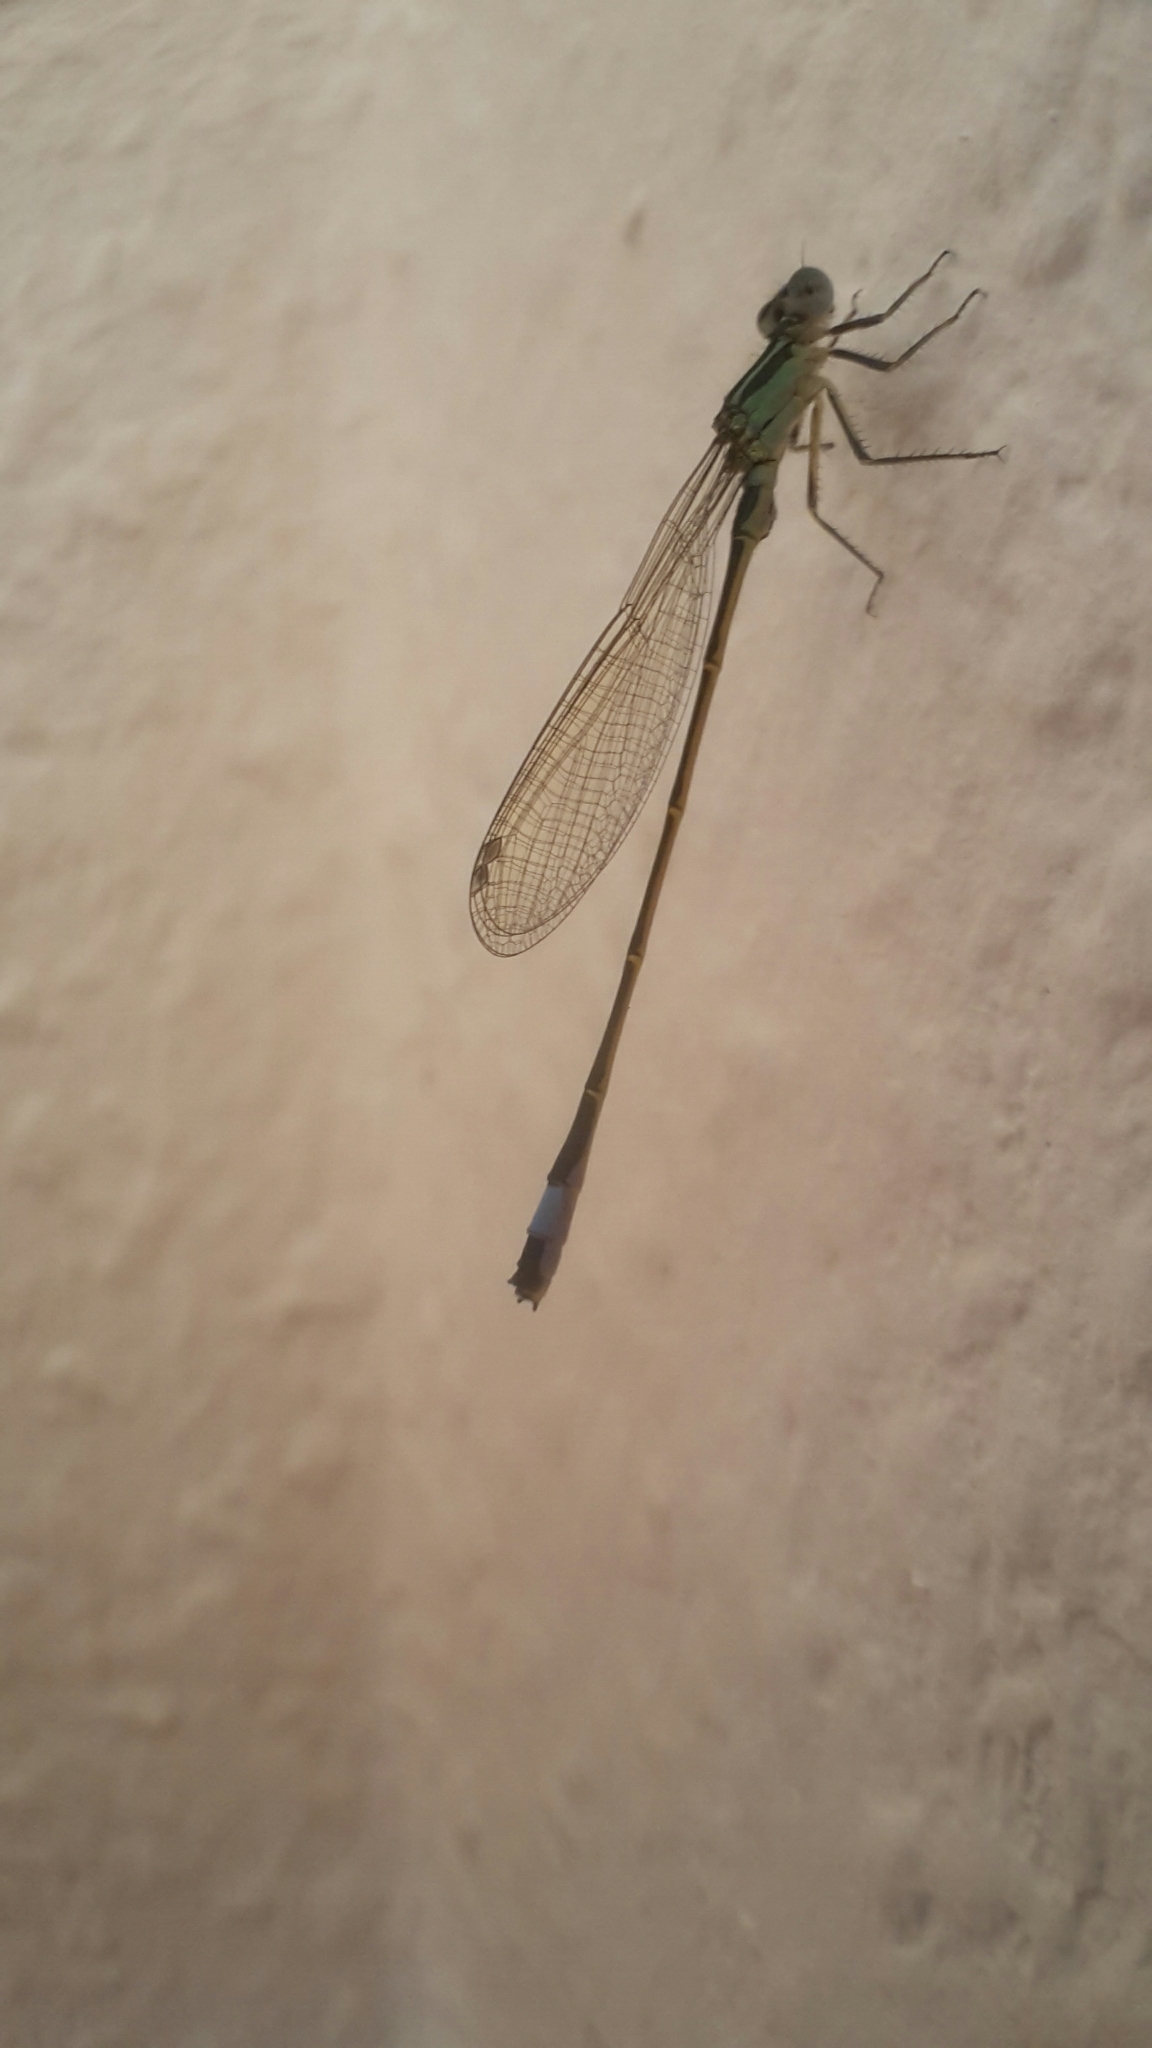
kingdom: Animalia
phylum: Arthropoda
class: Insecta
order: Odonata
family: Coenagrionidae
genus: Ischnura
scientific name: Ischnura elegans
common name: Blue-tailed damselfly
